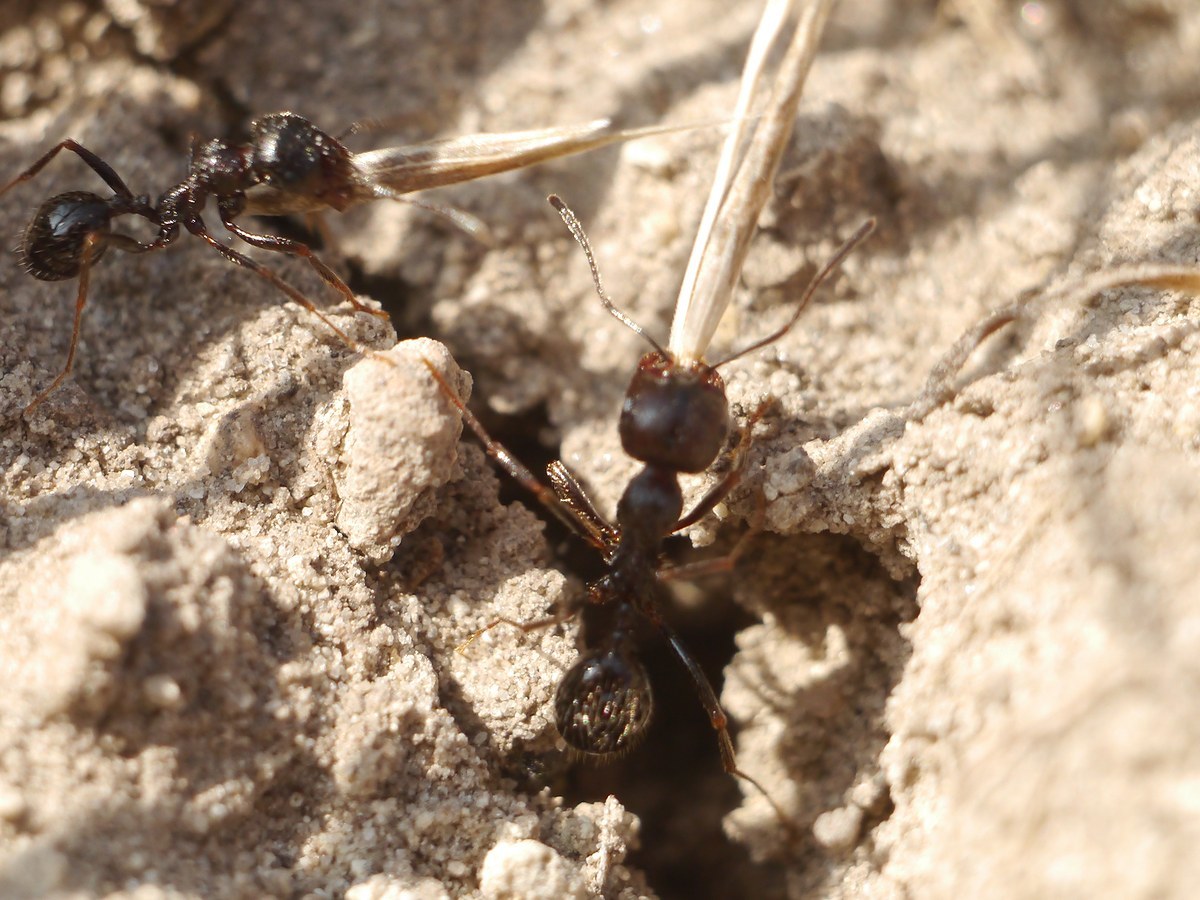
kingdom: Animalia
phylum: Arthropoda
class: Insecta
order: Hymenoptera
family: Formicidae
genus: Messor
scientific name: Messor structor
